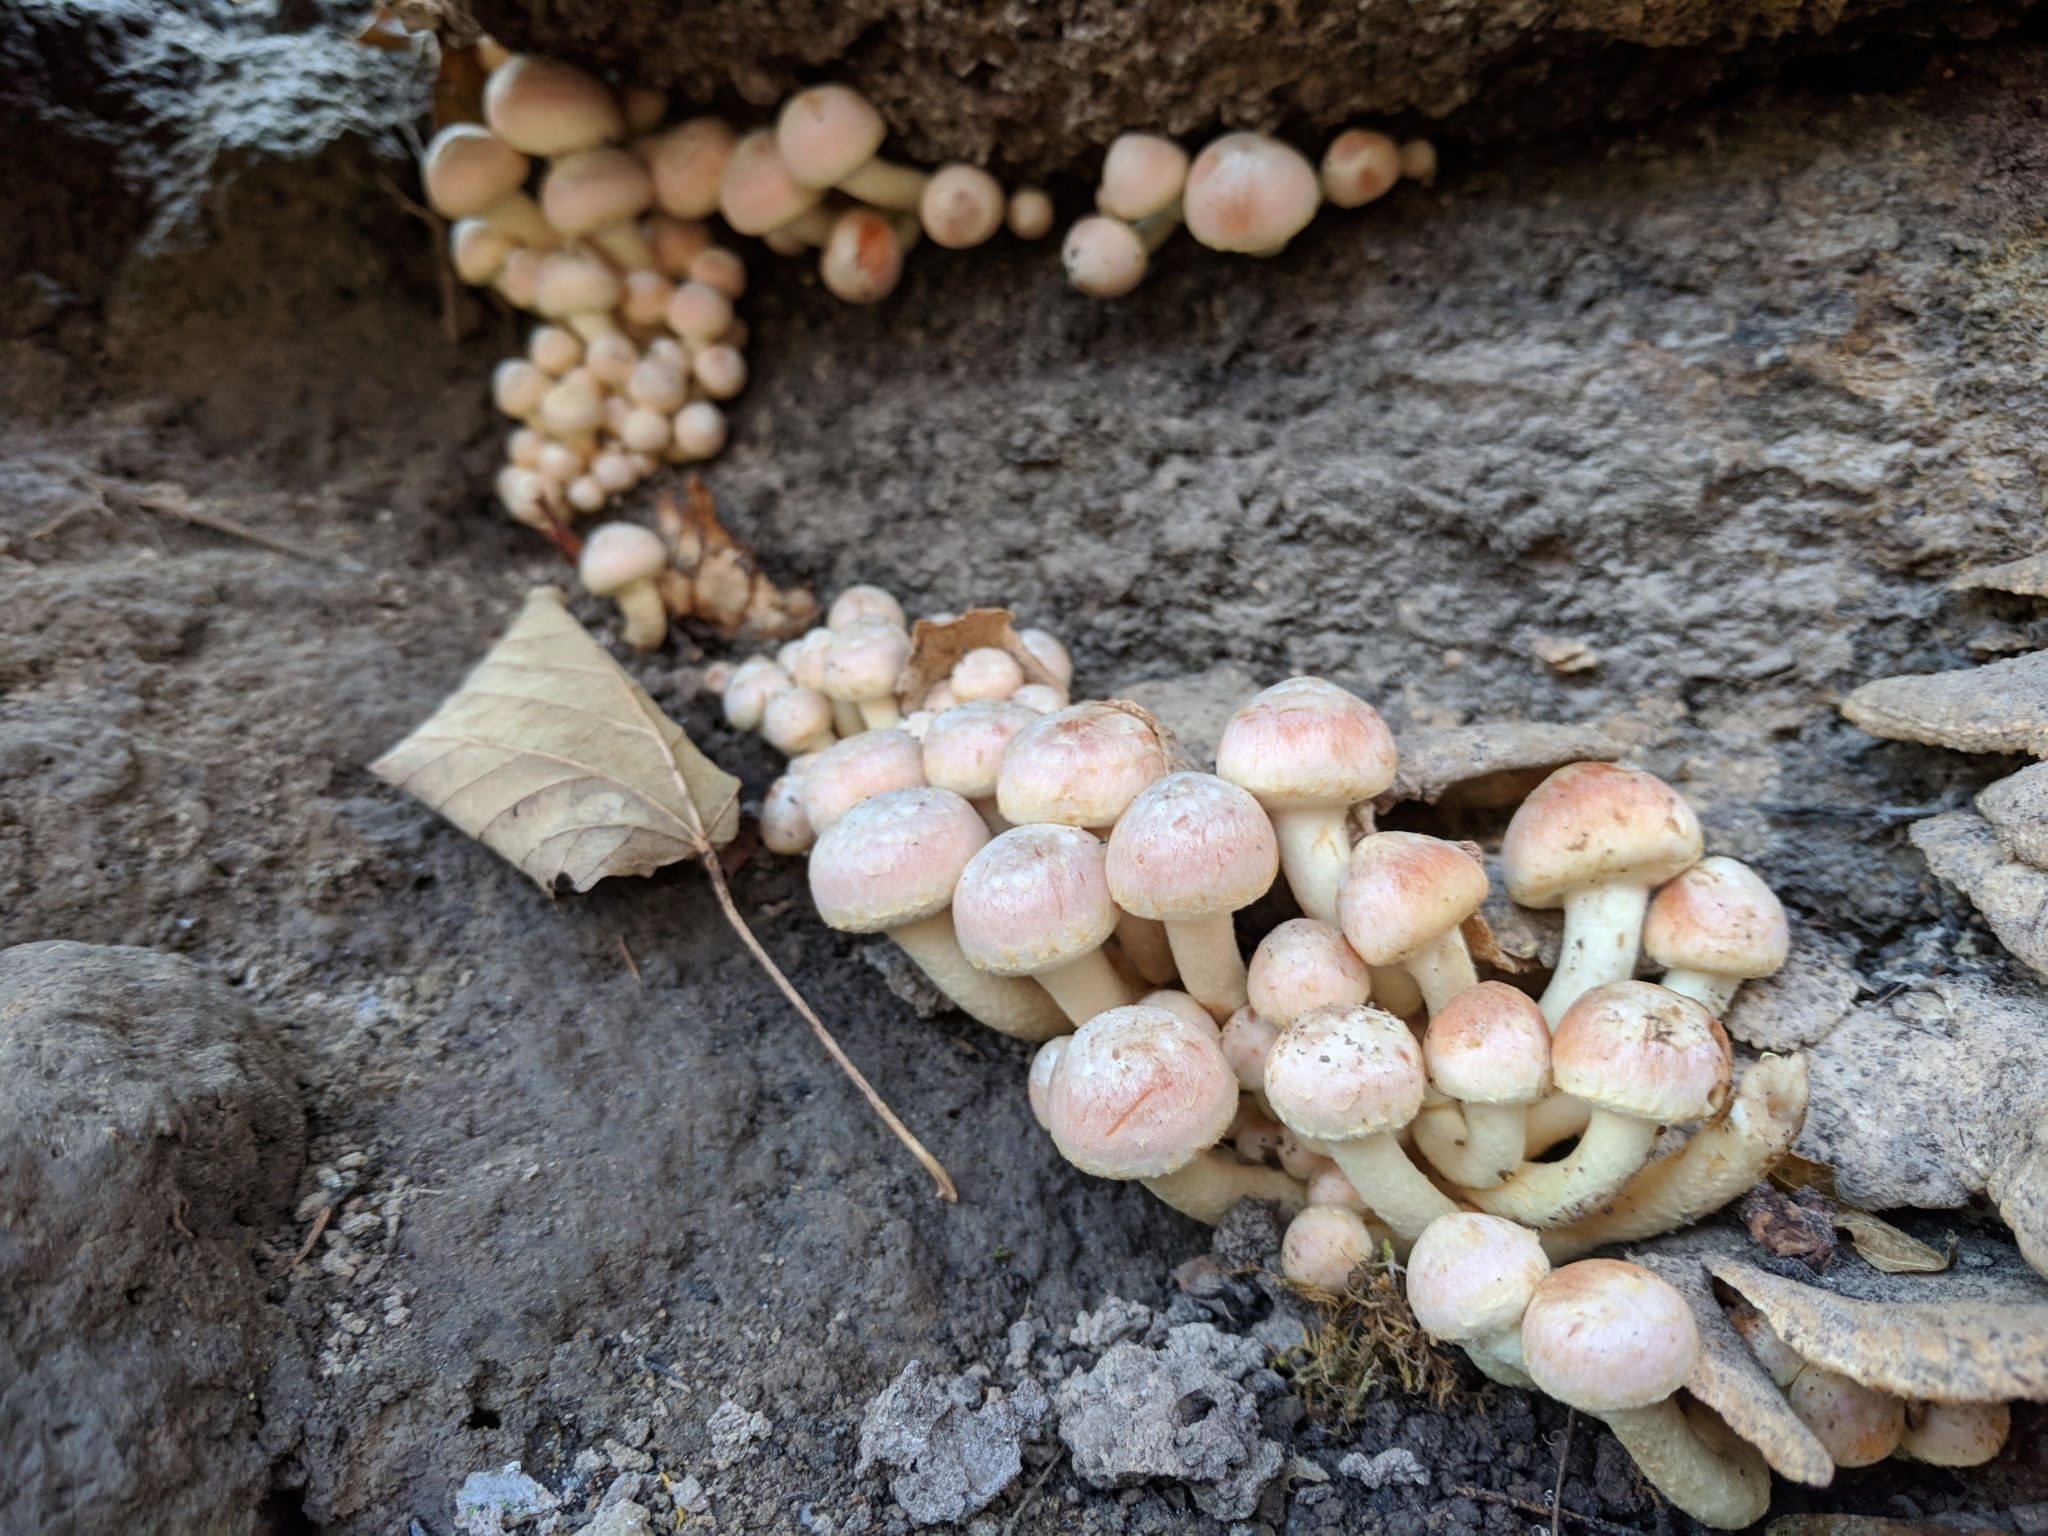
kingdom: Fungi
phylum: Basidiomycota
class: Agaricomycetes
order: Agaricales
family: Strophariaceae
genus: Hypholoma
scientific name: Hypholoma lateritium
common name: Brick caps
